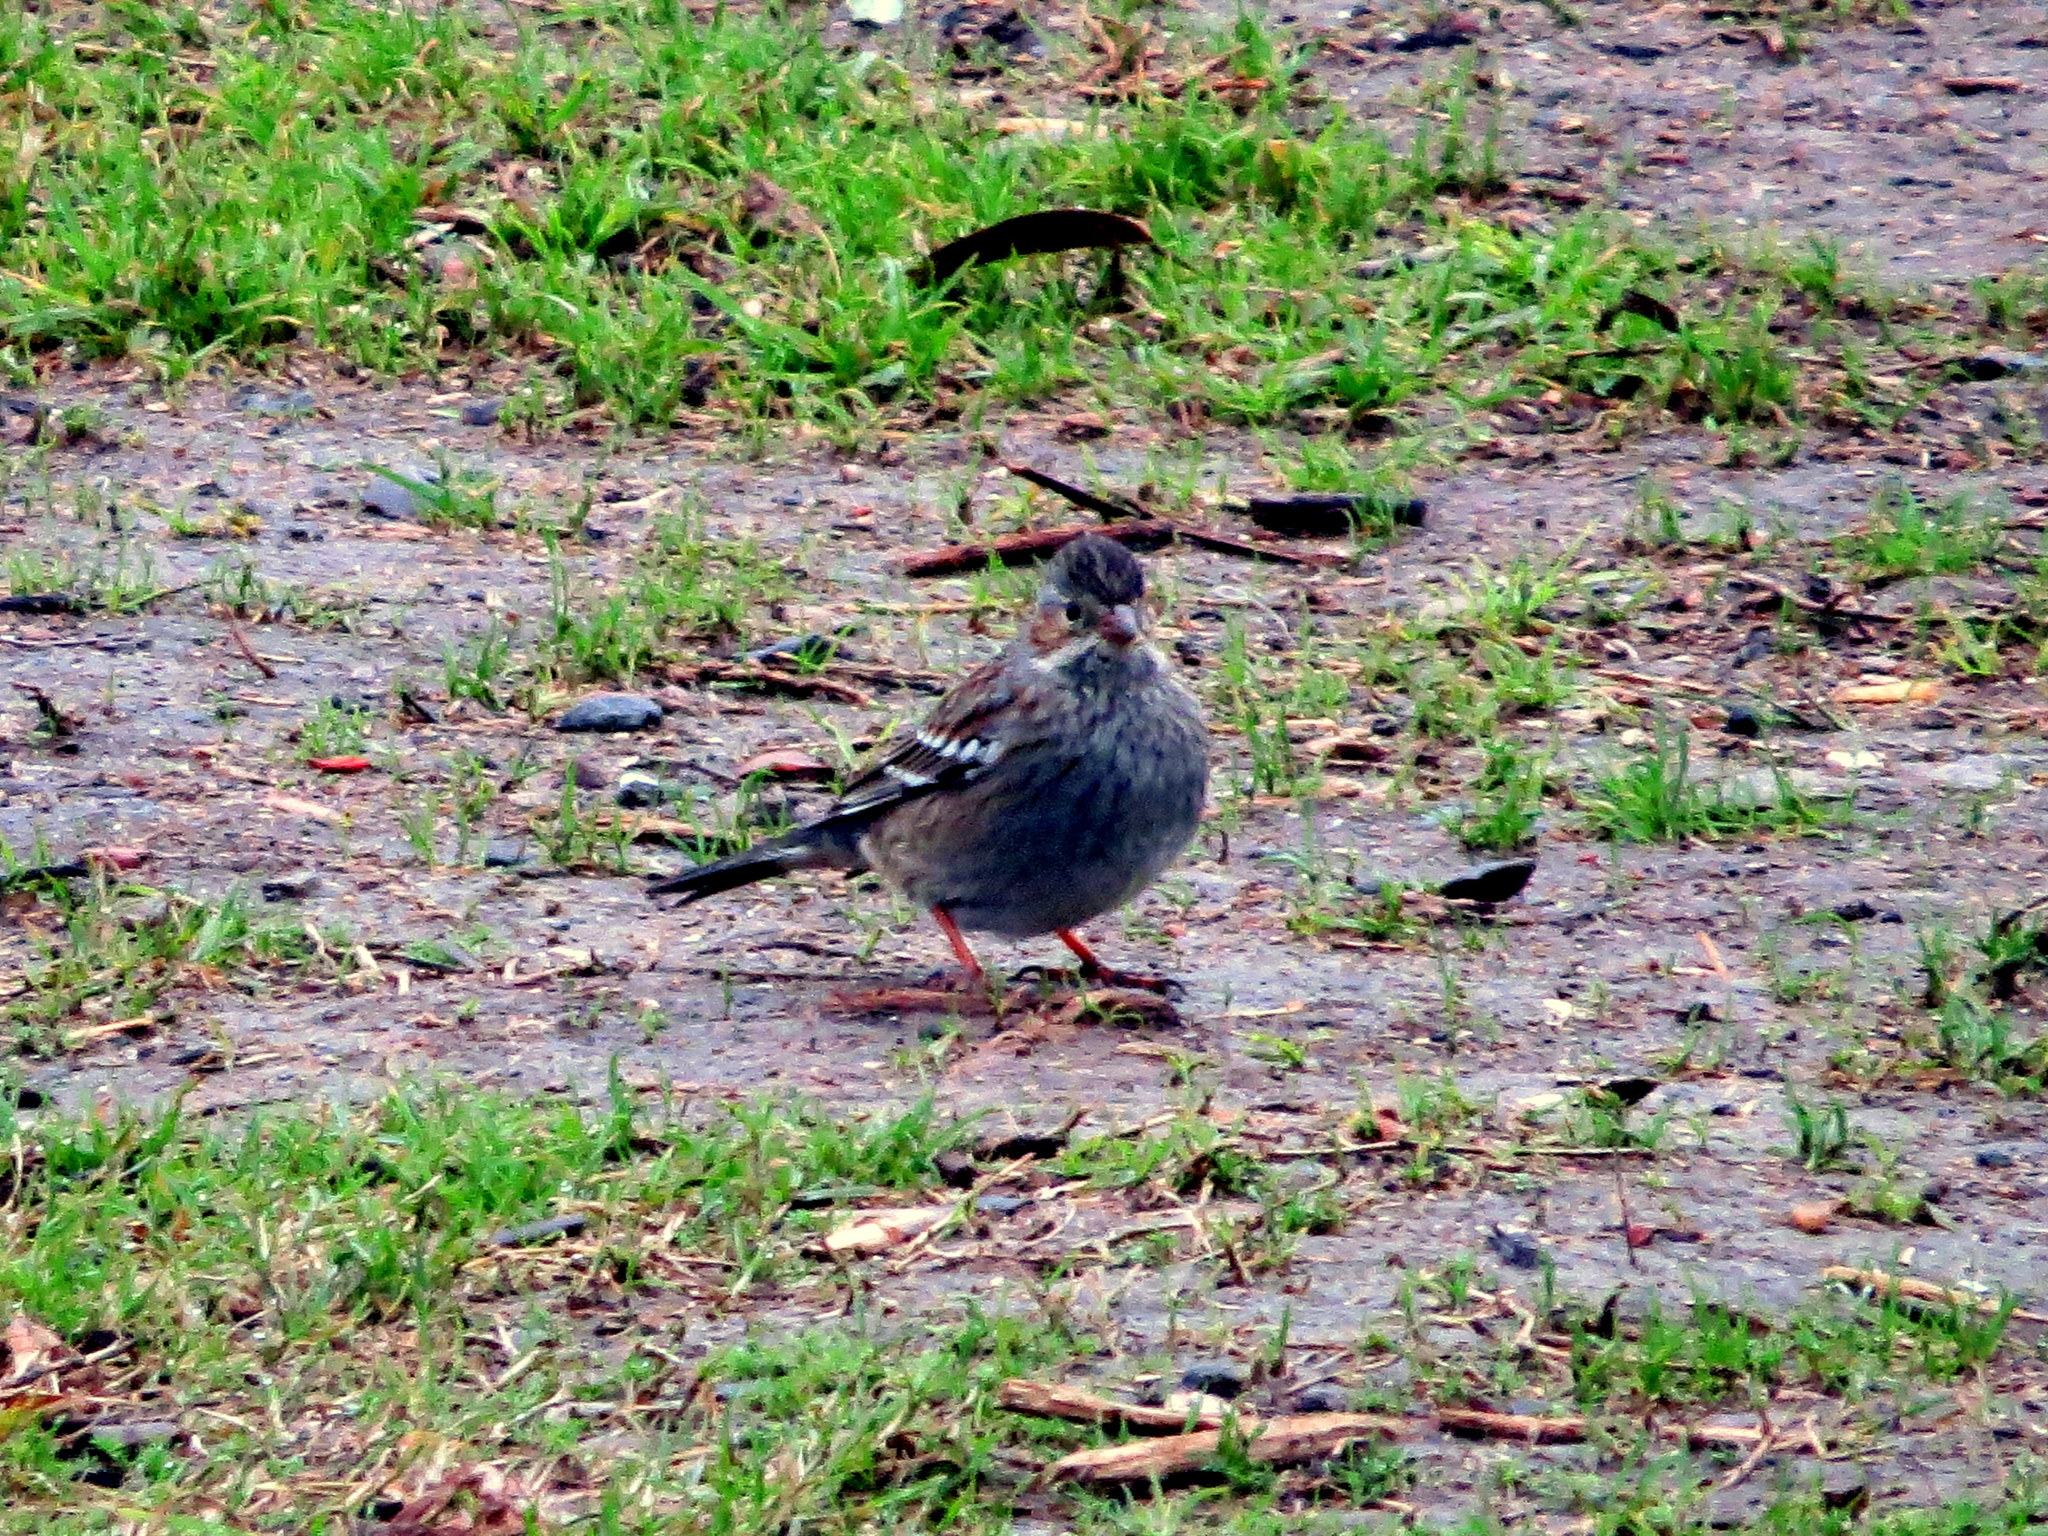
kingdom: Animalia
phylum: Chordata
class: Aves
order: Passeriformes
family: Mimidae
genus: Mimus
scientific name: Mimus triurus
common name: White-banded mockingbird
